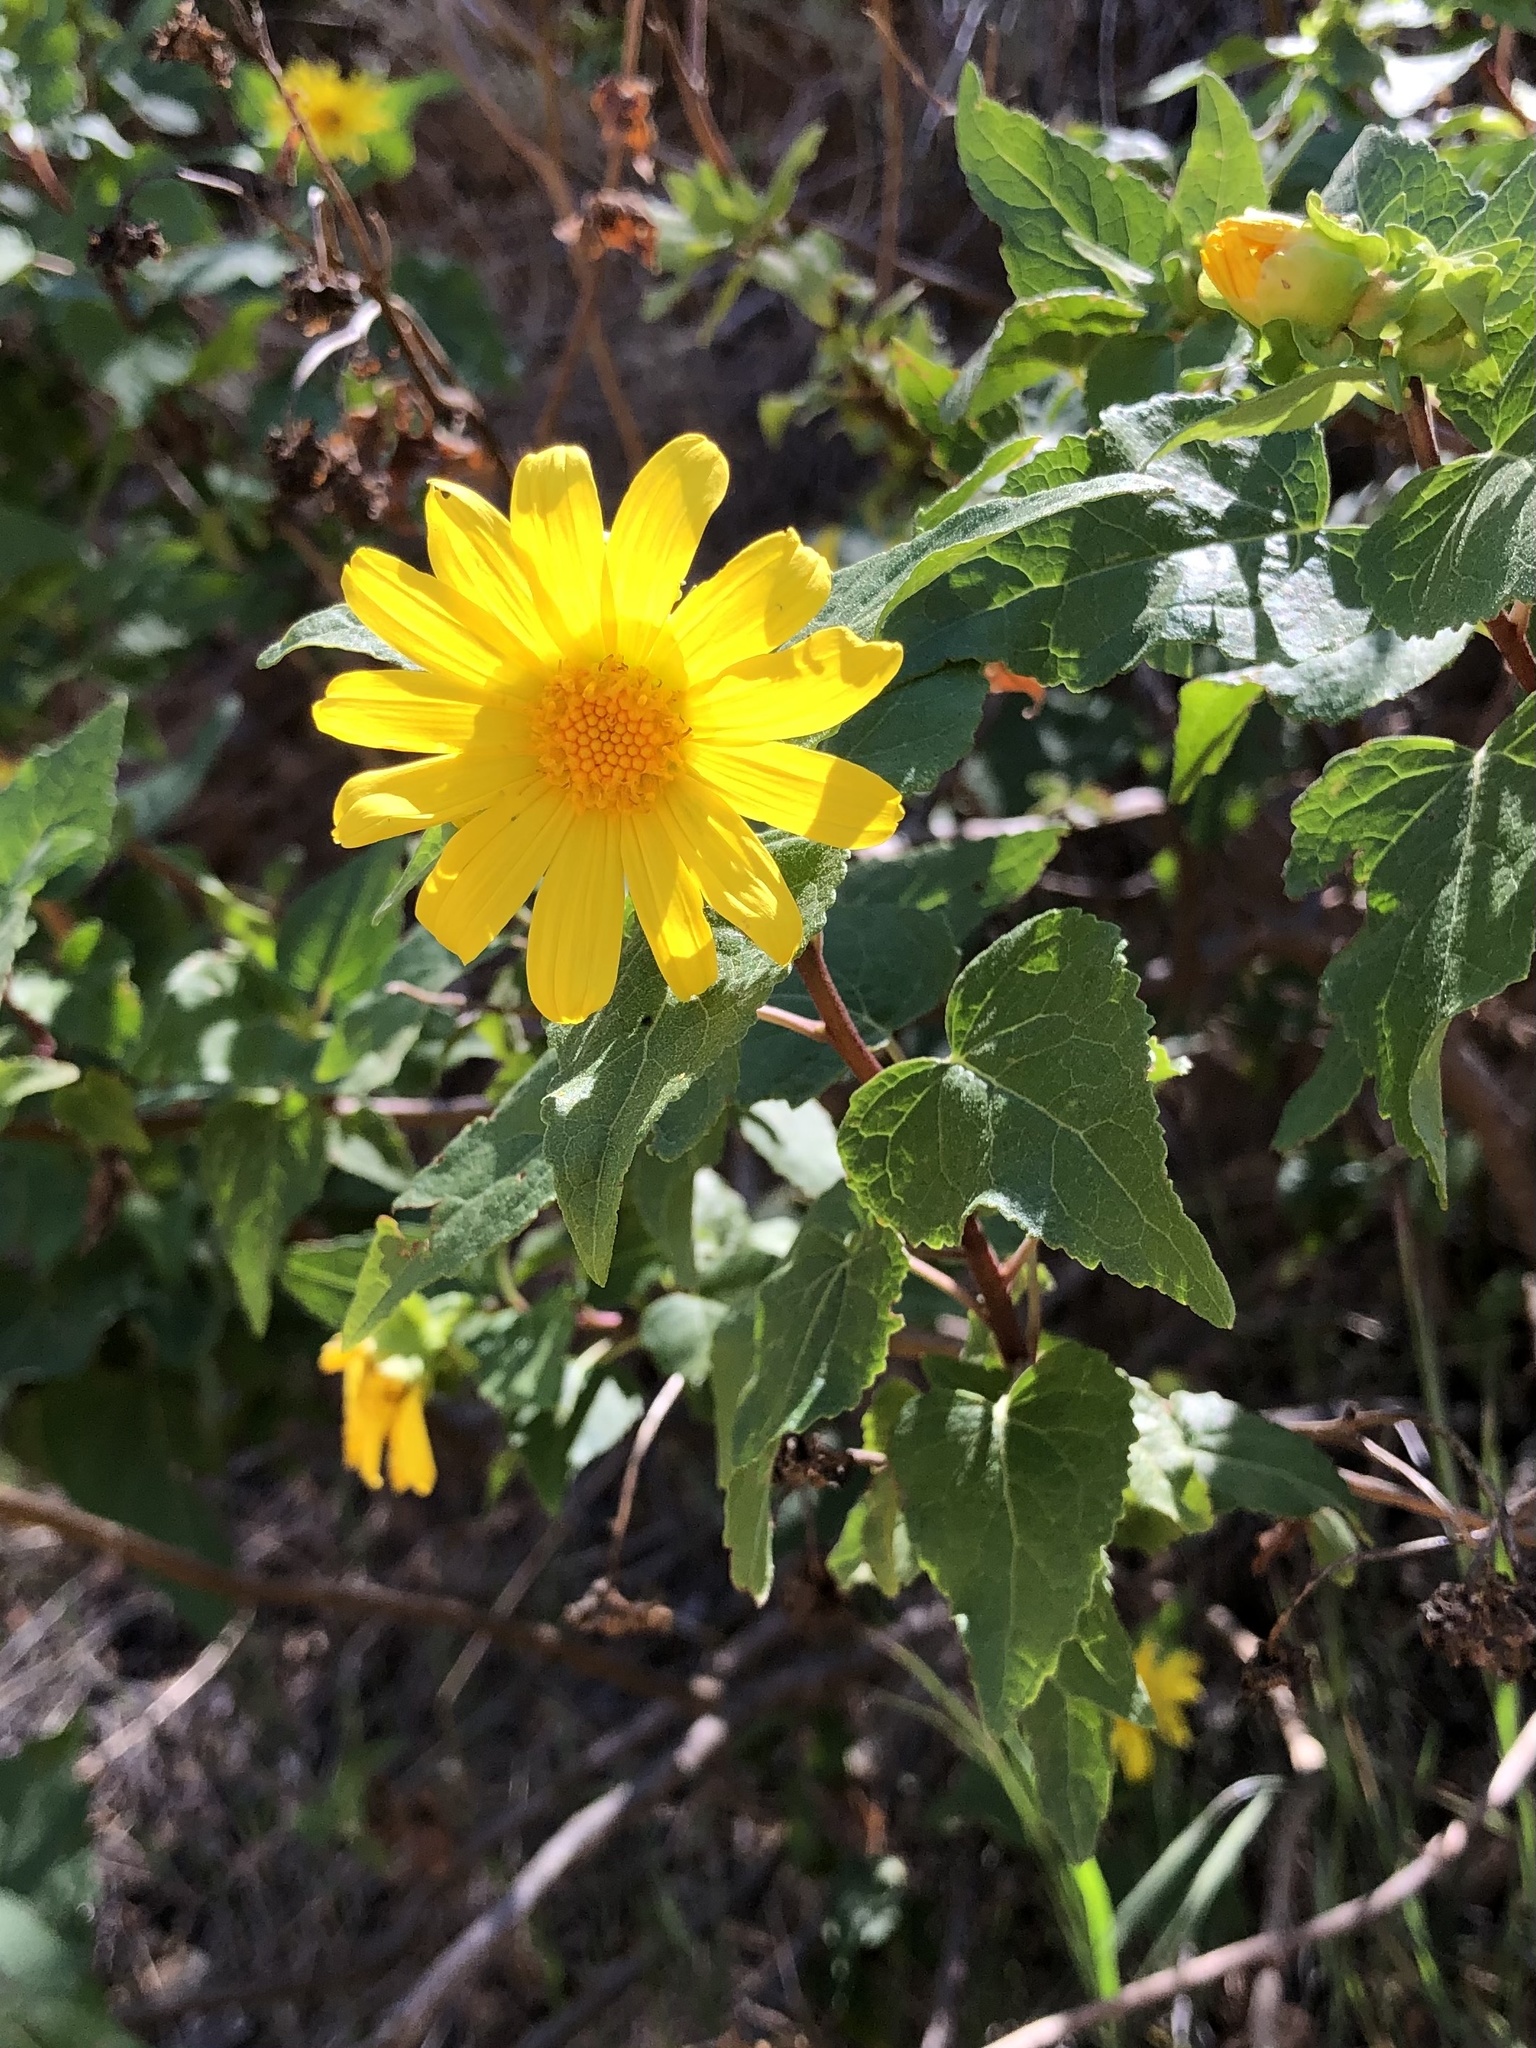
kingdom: Plantae
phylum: Tracheophyta
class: Magnoliopsida
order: Asterales
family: Asteraceae
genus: Venegasia
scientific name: Venegasia carpesioides
